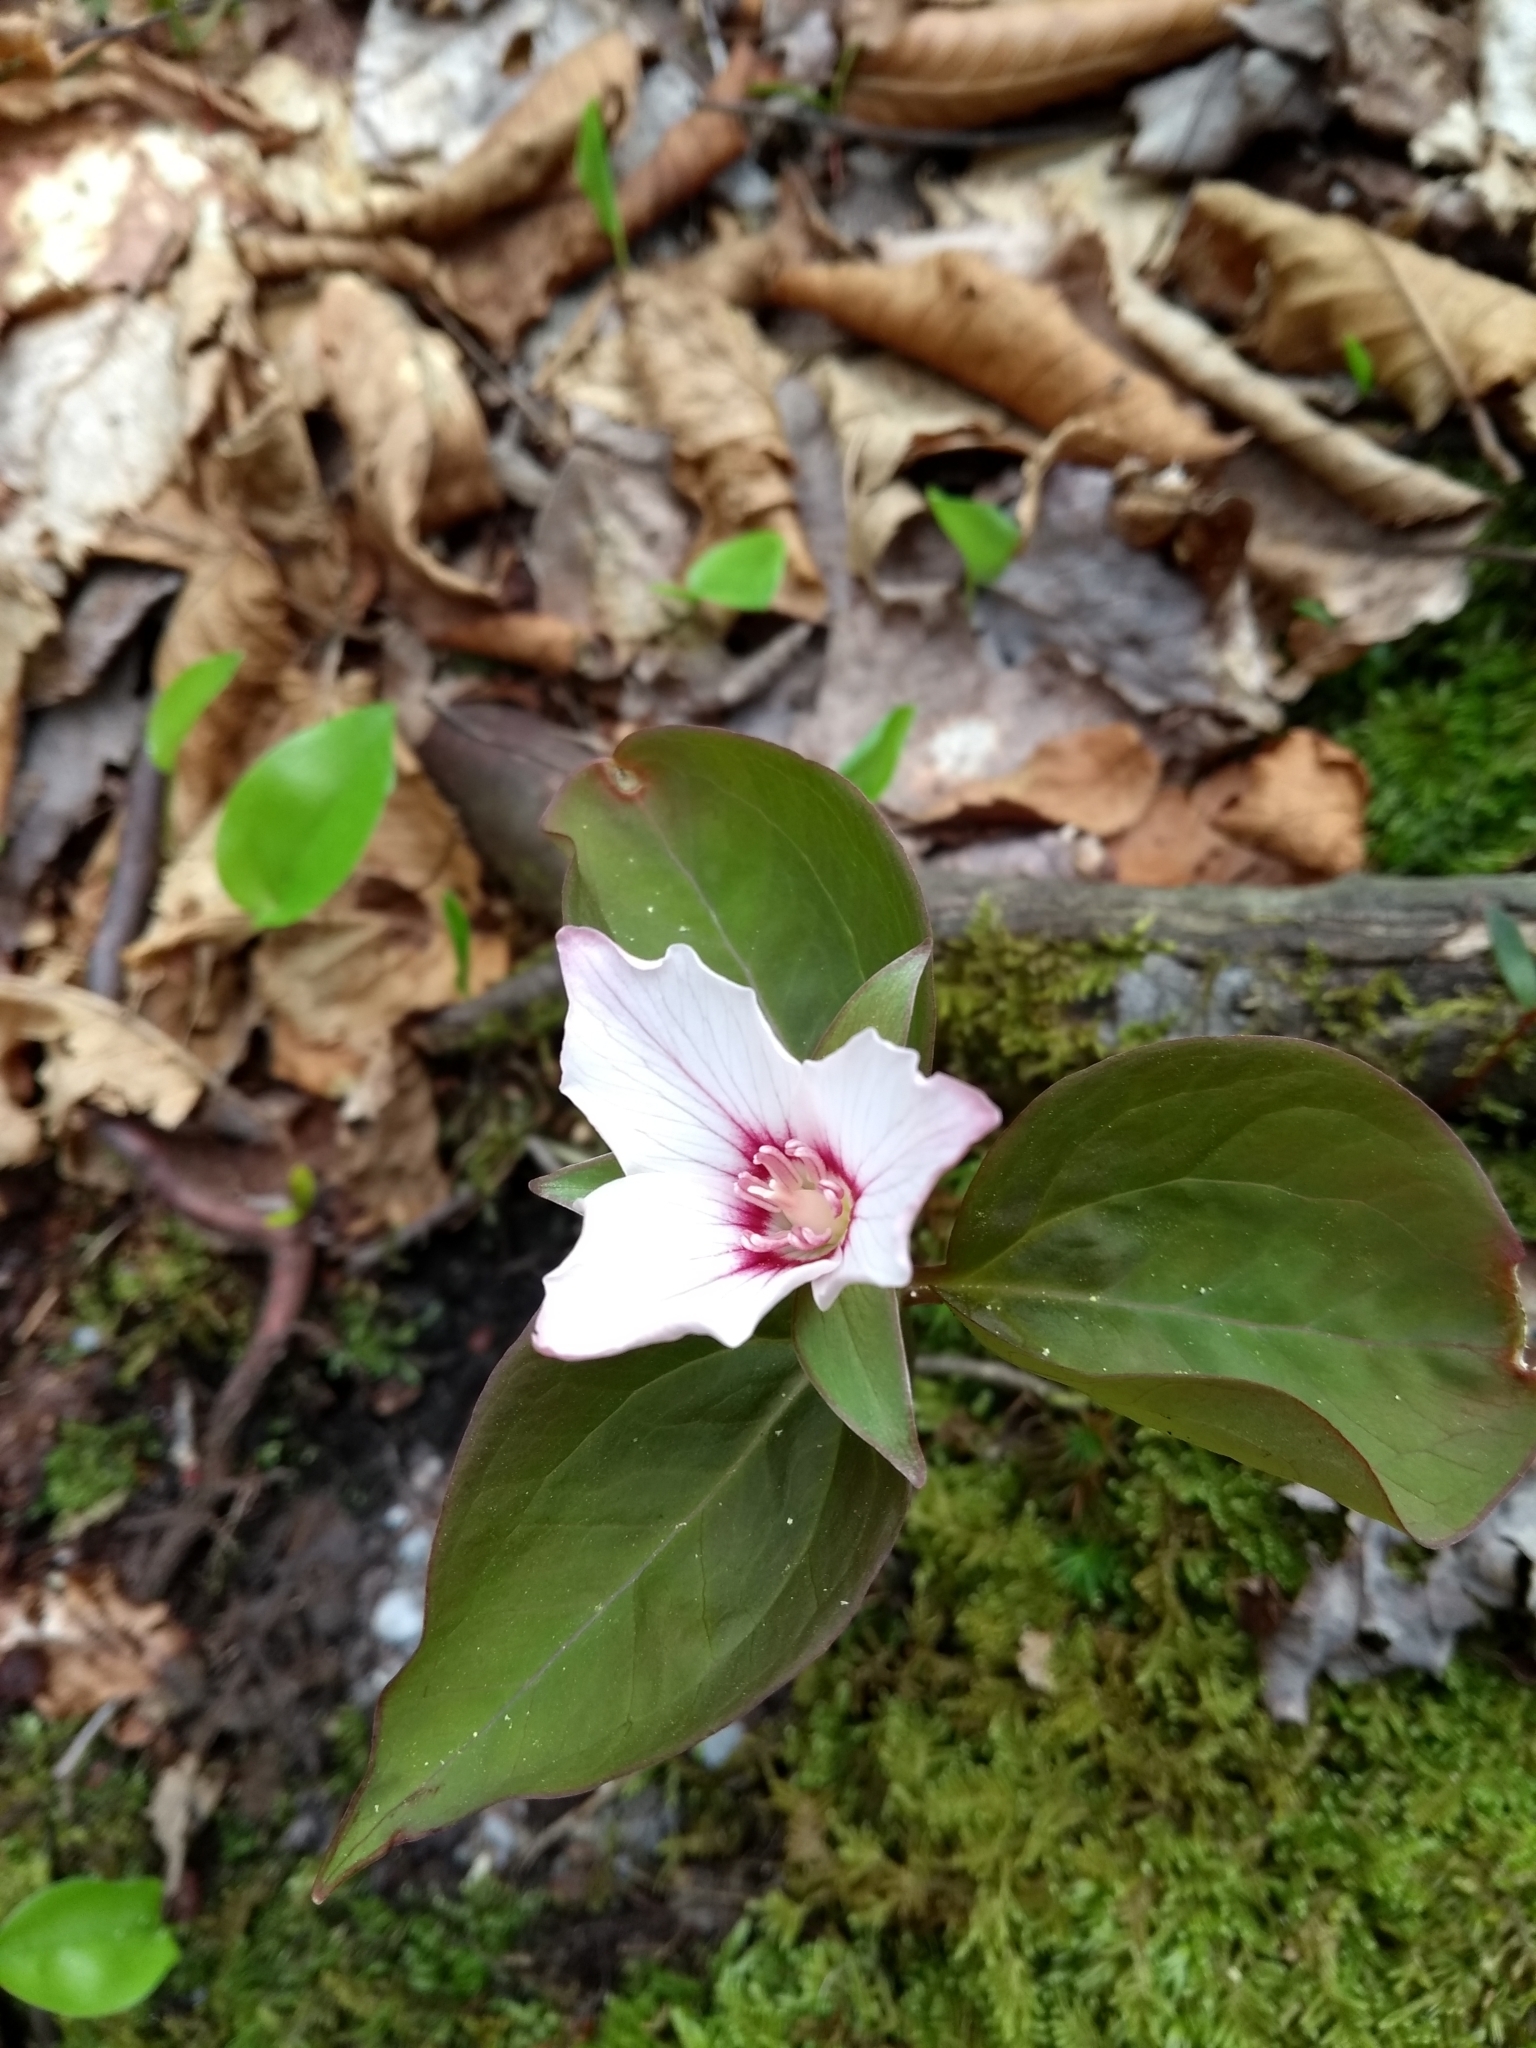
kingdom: Plantae
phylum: Tracheophyta
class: Liliopsida
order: Liliales
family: Melanthiaceae
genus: Trillium
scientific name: Trillium undulatum
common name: Paint trillium
